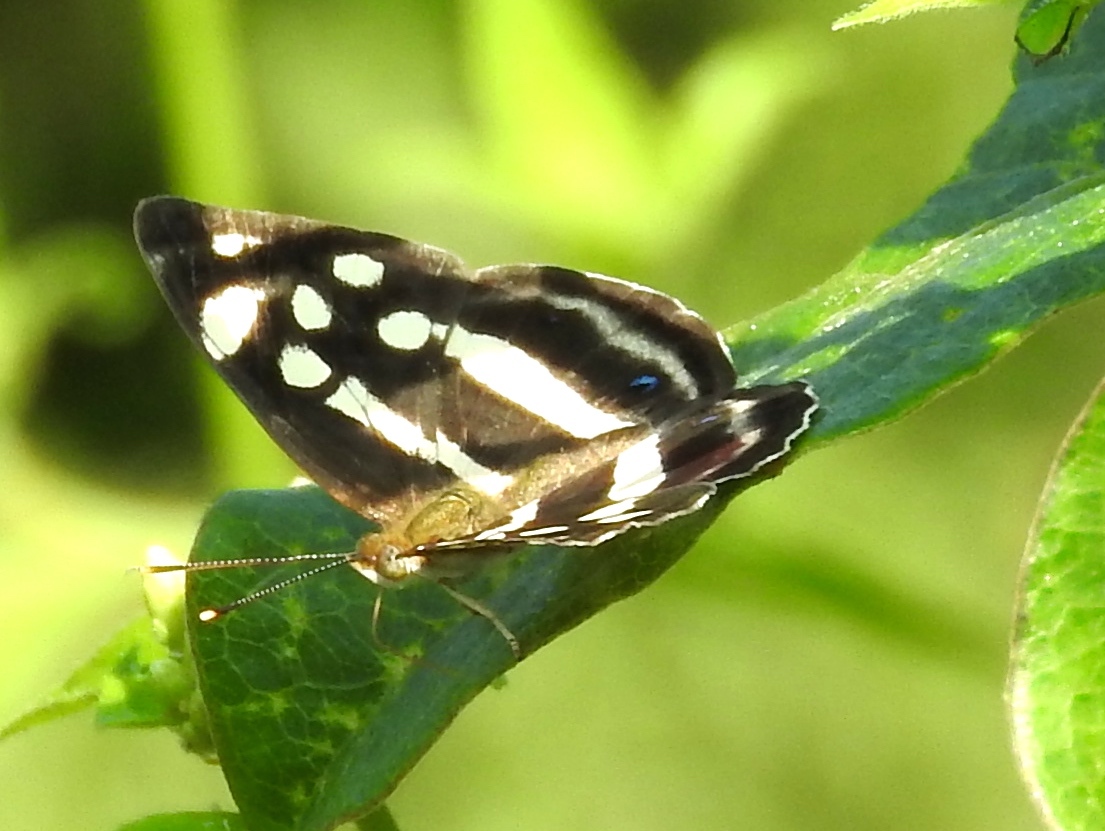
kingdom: Animalia
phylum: Arthropoda
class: Insecta
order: Lepidoptera
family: Nymphalidae
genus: Dynamine
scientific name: Dynamine mylitta
